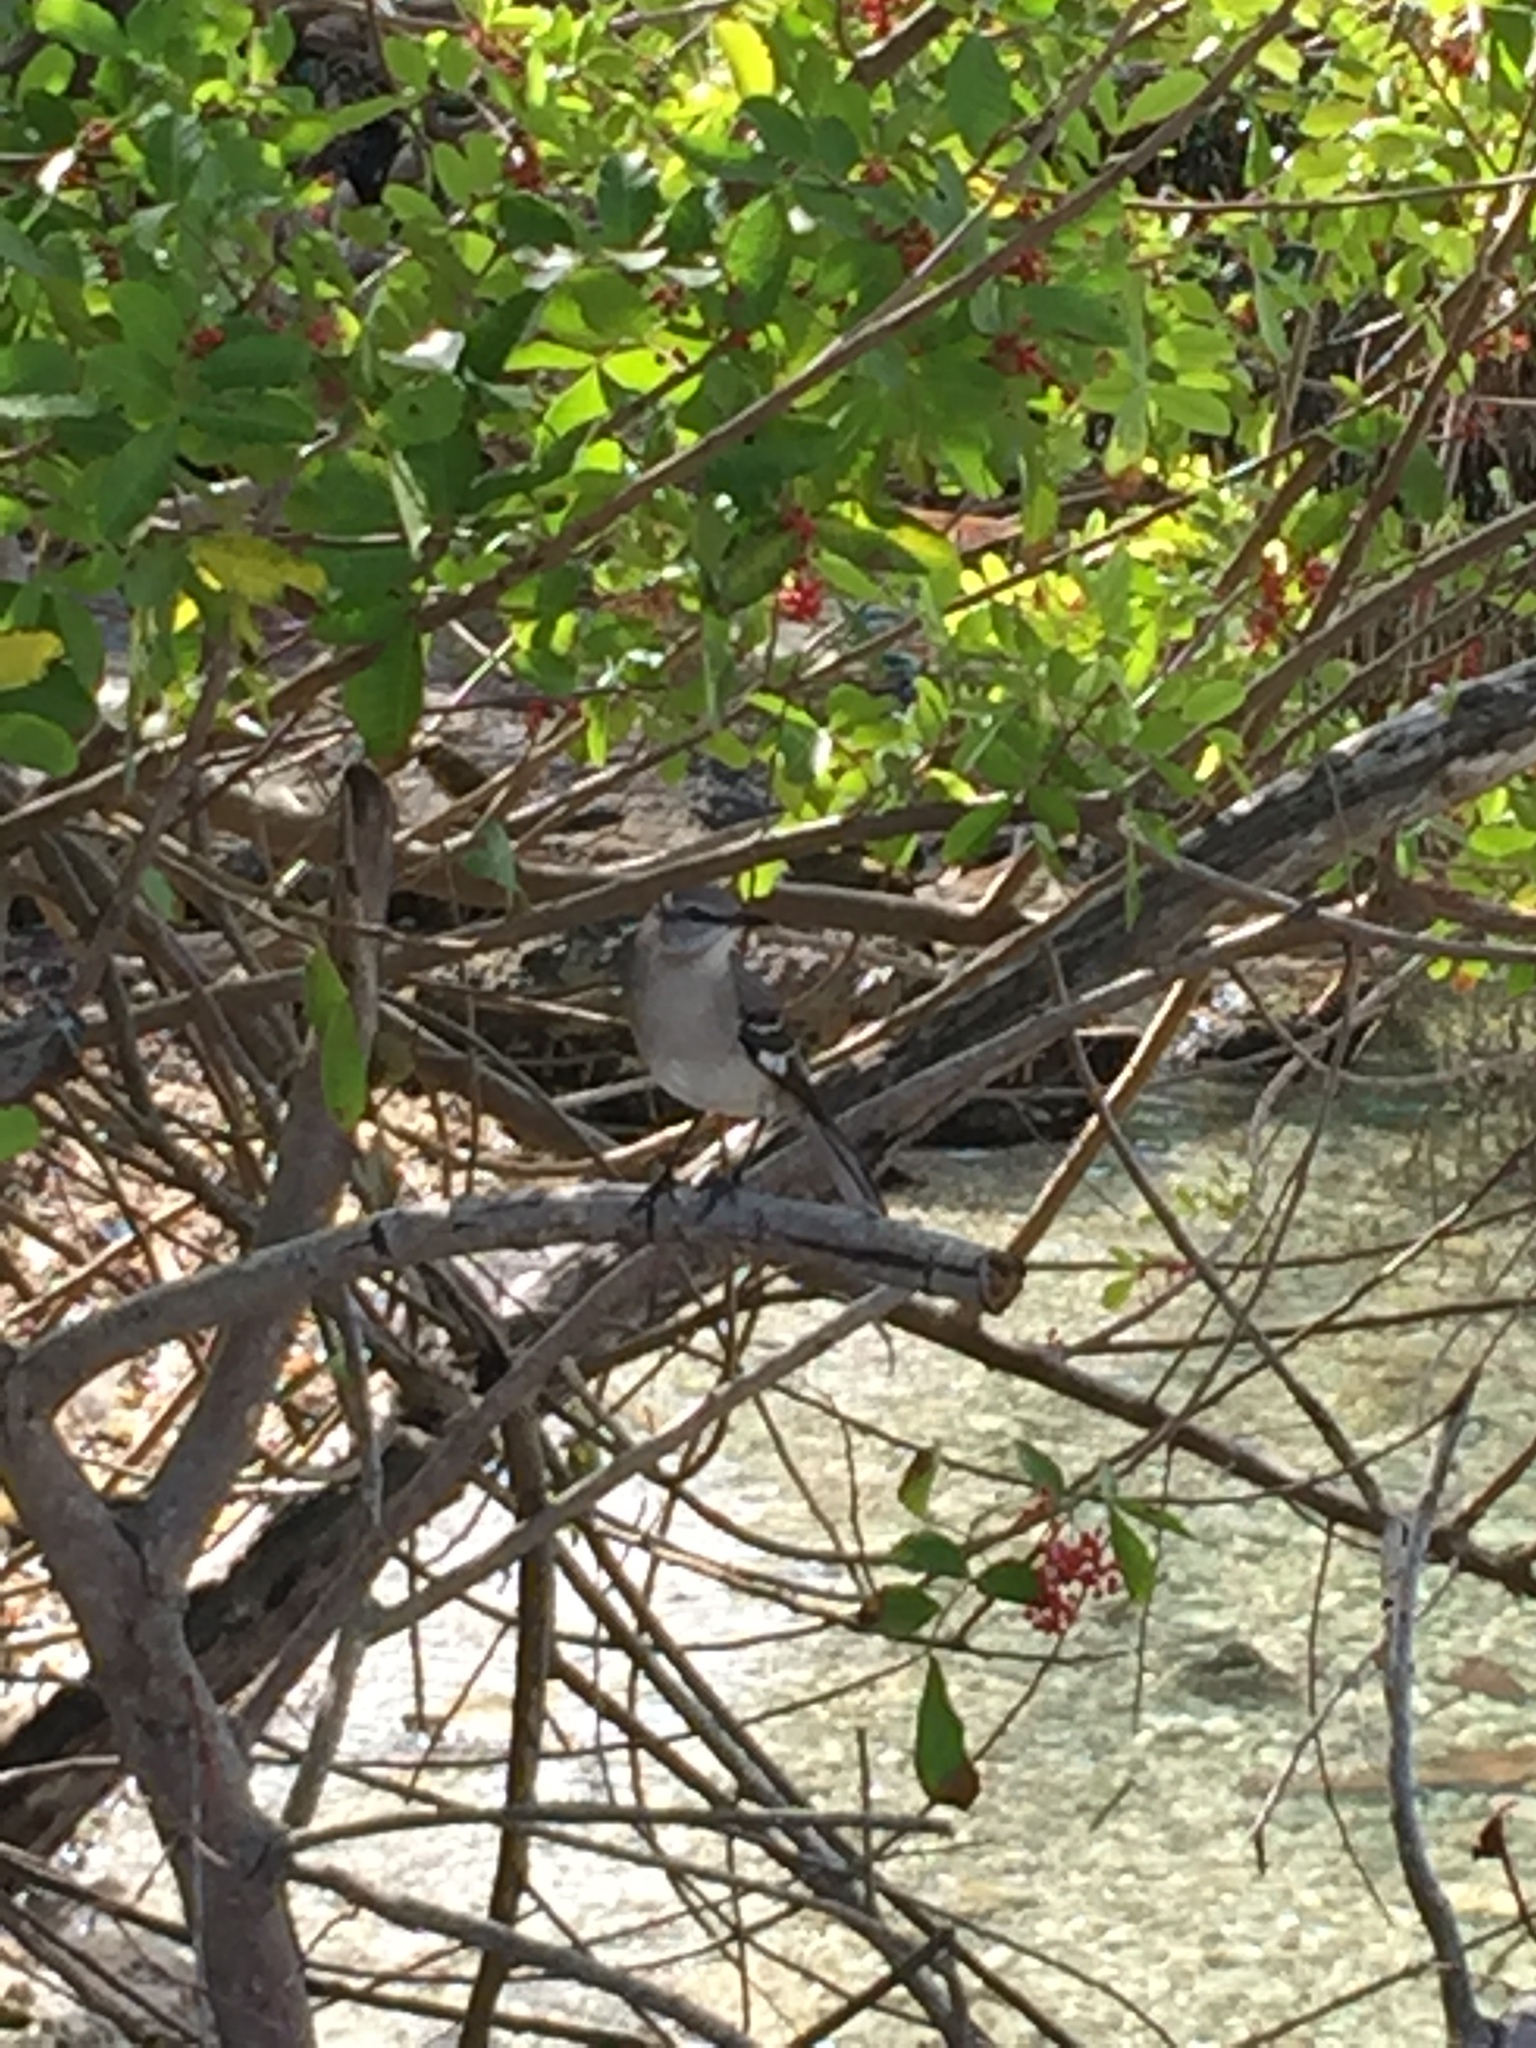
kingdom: Animalia
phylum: Chordata
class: Aves
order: Passeriformes
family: Mimidae
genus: Mimus
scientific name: Mimus polyglottos
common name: Northern mockingbird
